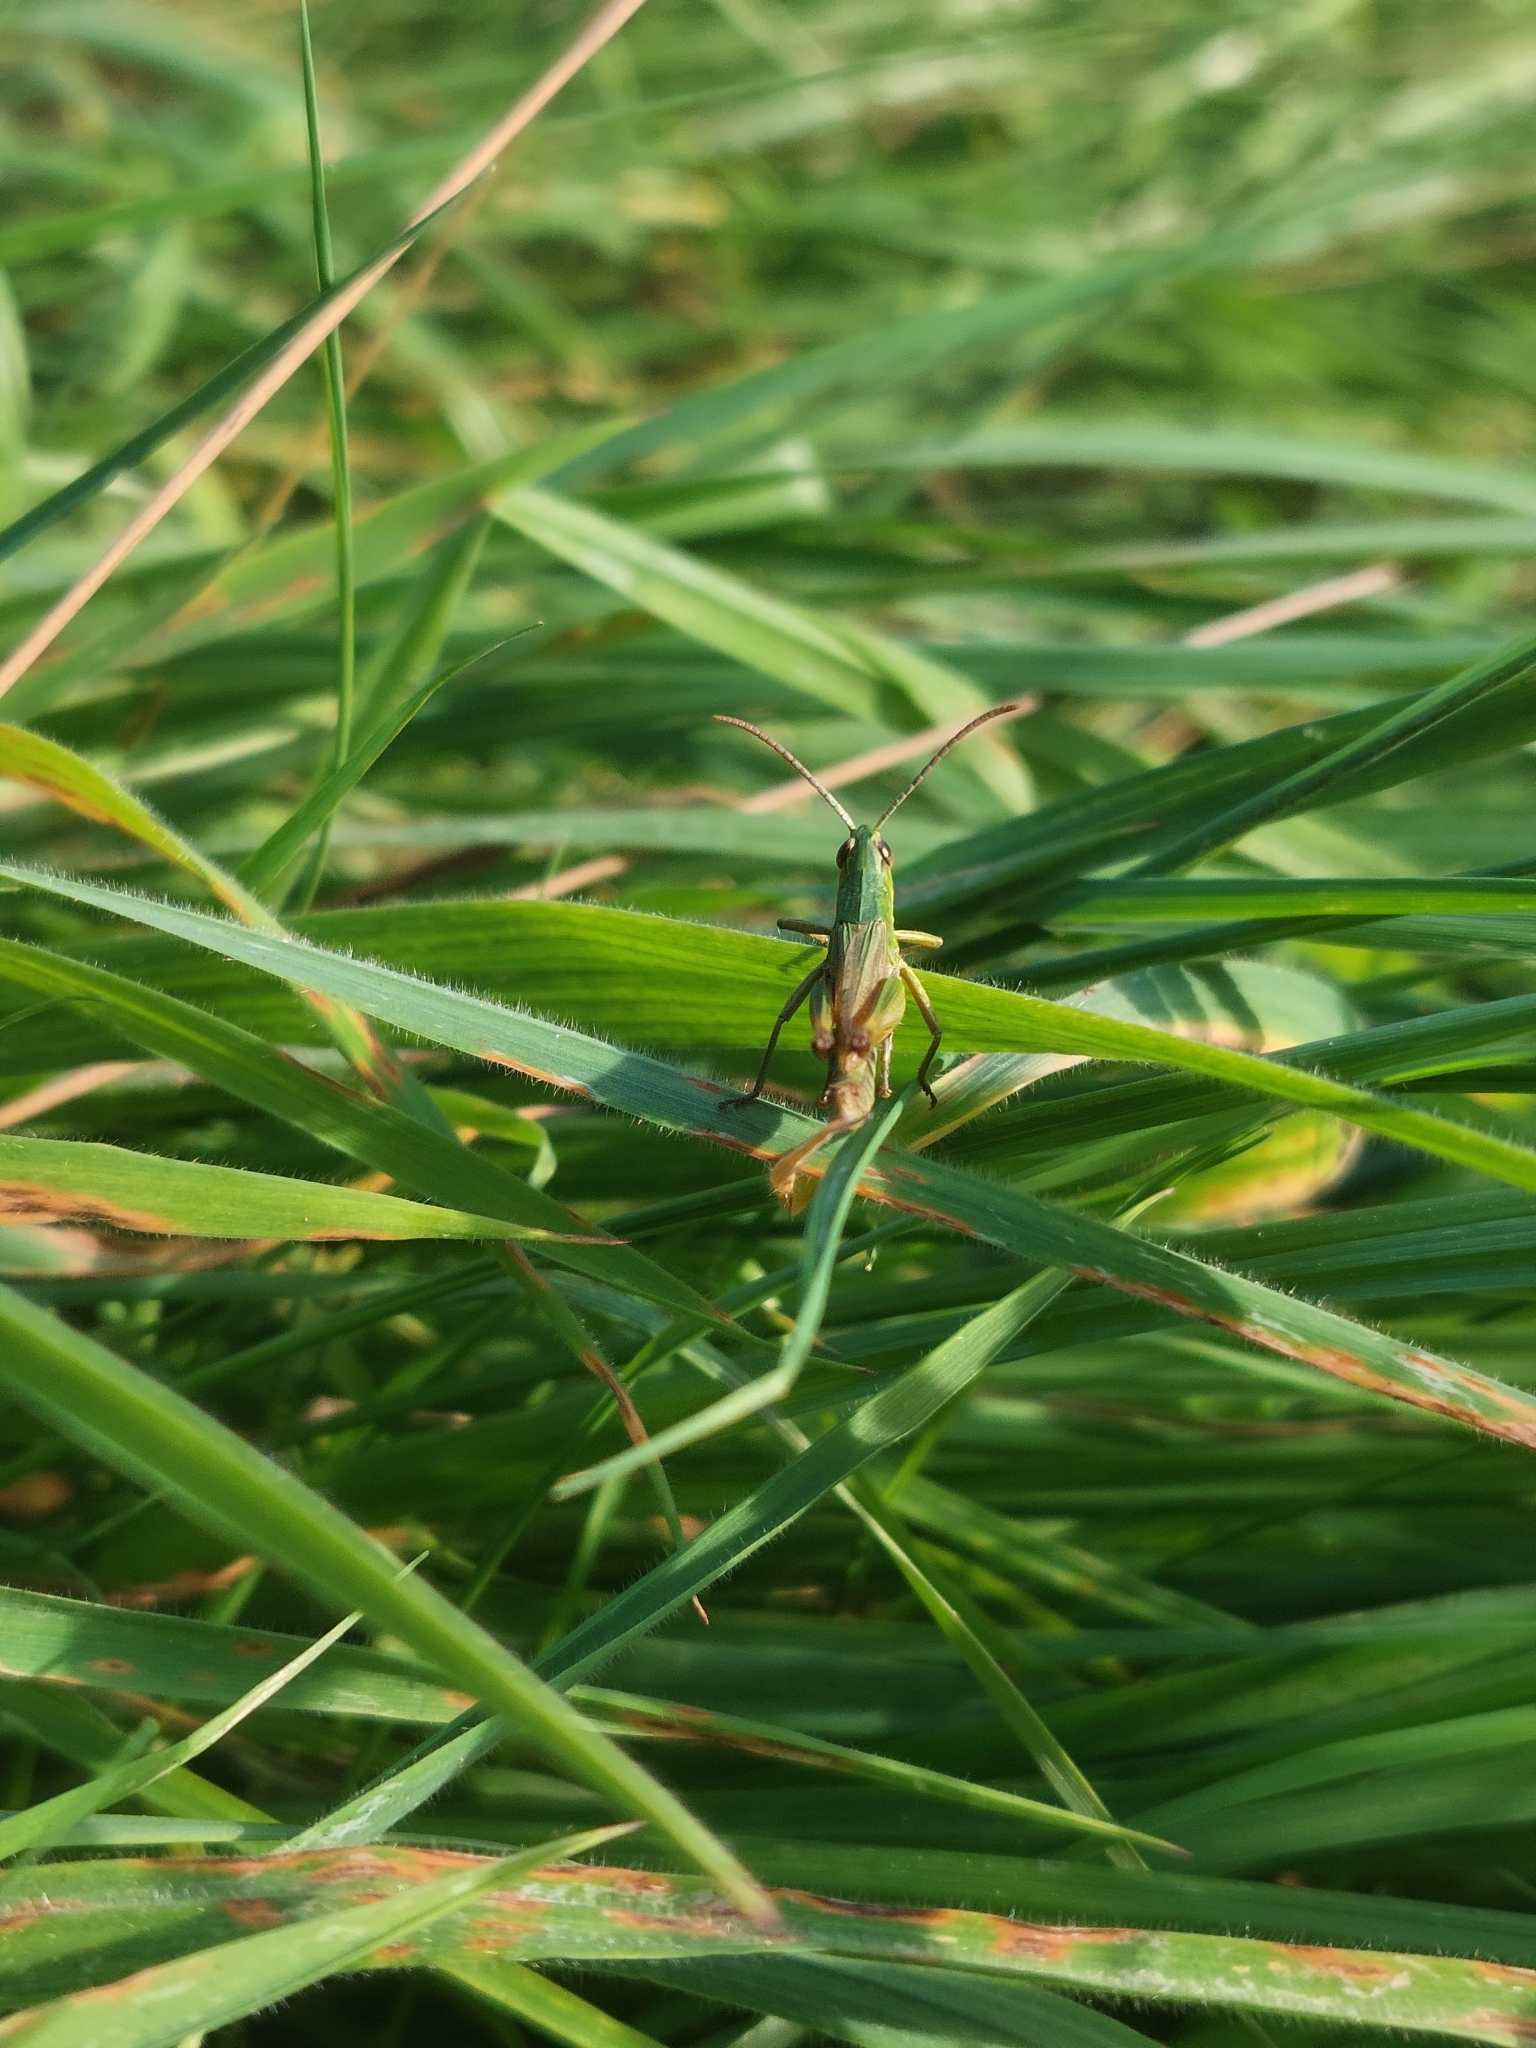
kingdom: Animalia
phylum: Arthropoda
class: Insecta
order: Orthoptera
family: Acrididae
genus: Pseudochorthippus
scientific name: Pseudochorthippus parallelus
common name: Meadow grasshopper
